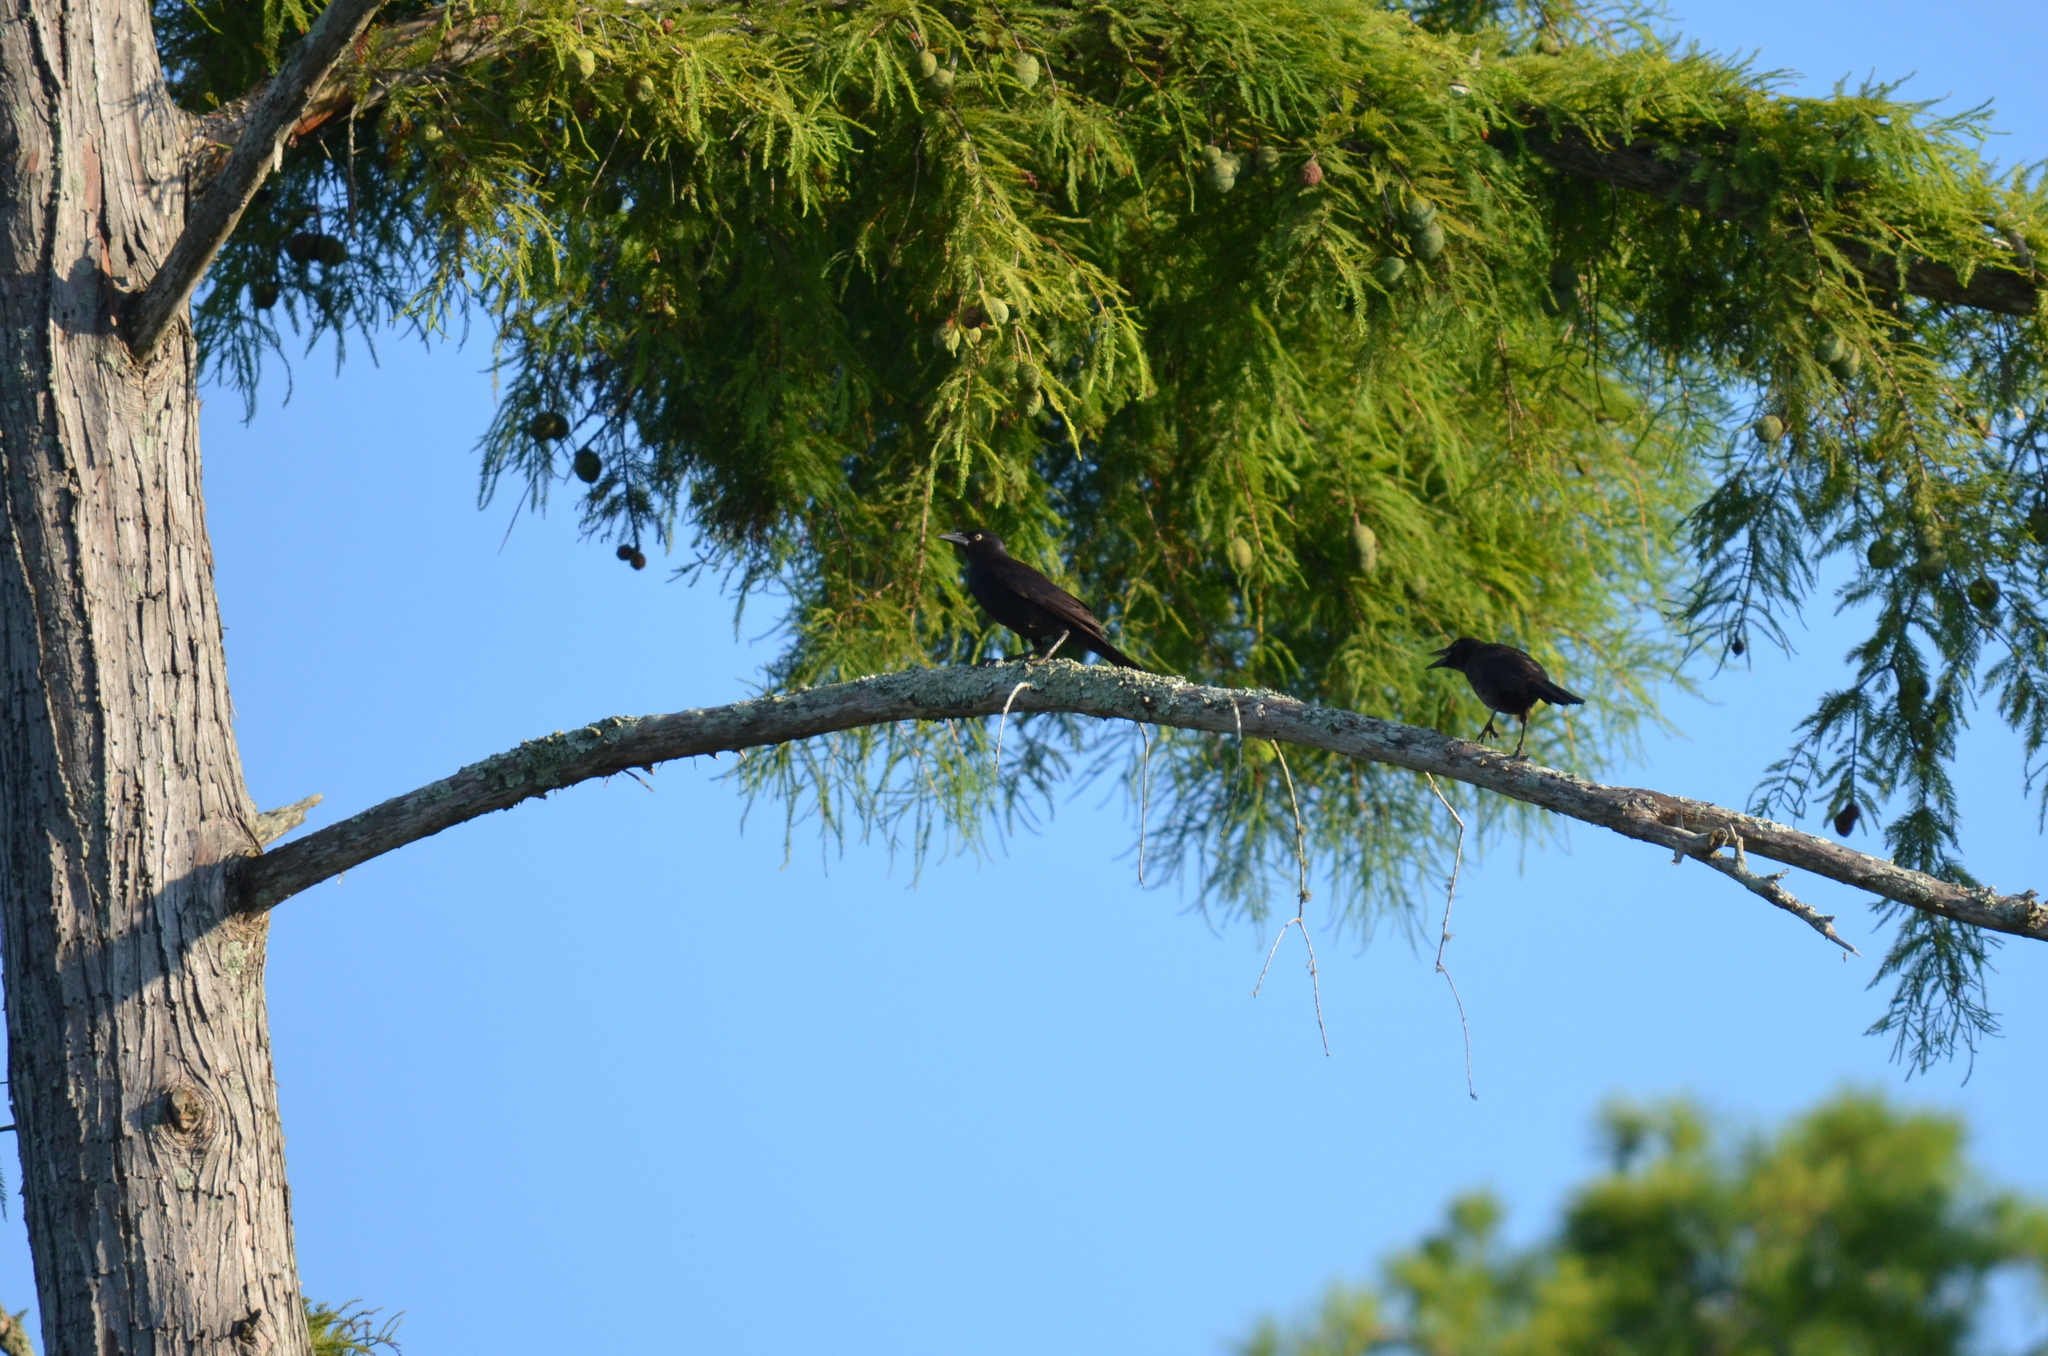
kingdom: Animalia
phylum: Chordata
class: Aves
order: Passeriformes
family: Icteridae
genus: Quiscalus
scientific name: Quiscalus quiscula
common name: Common grackle
